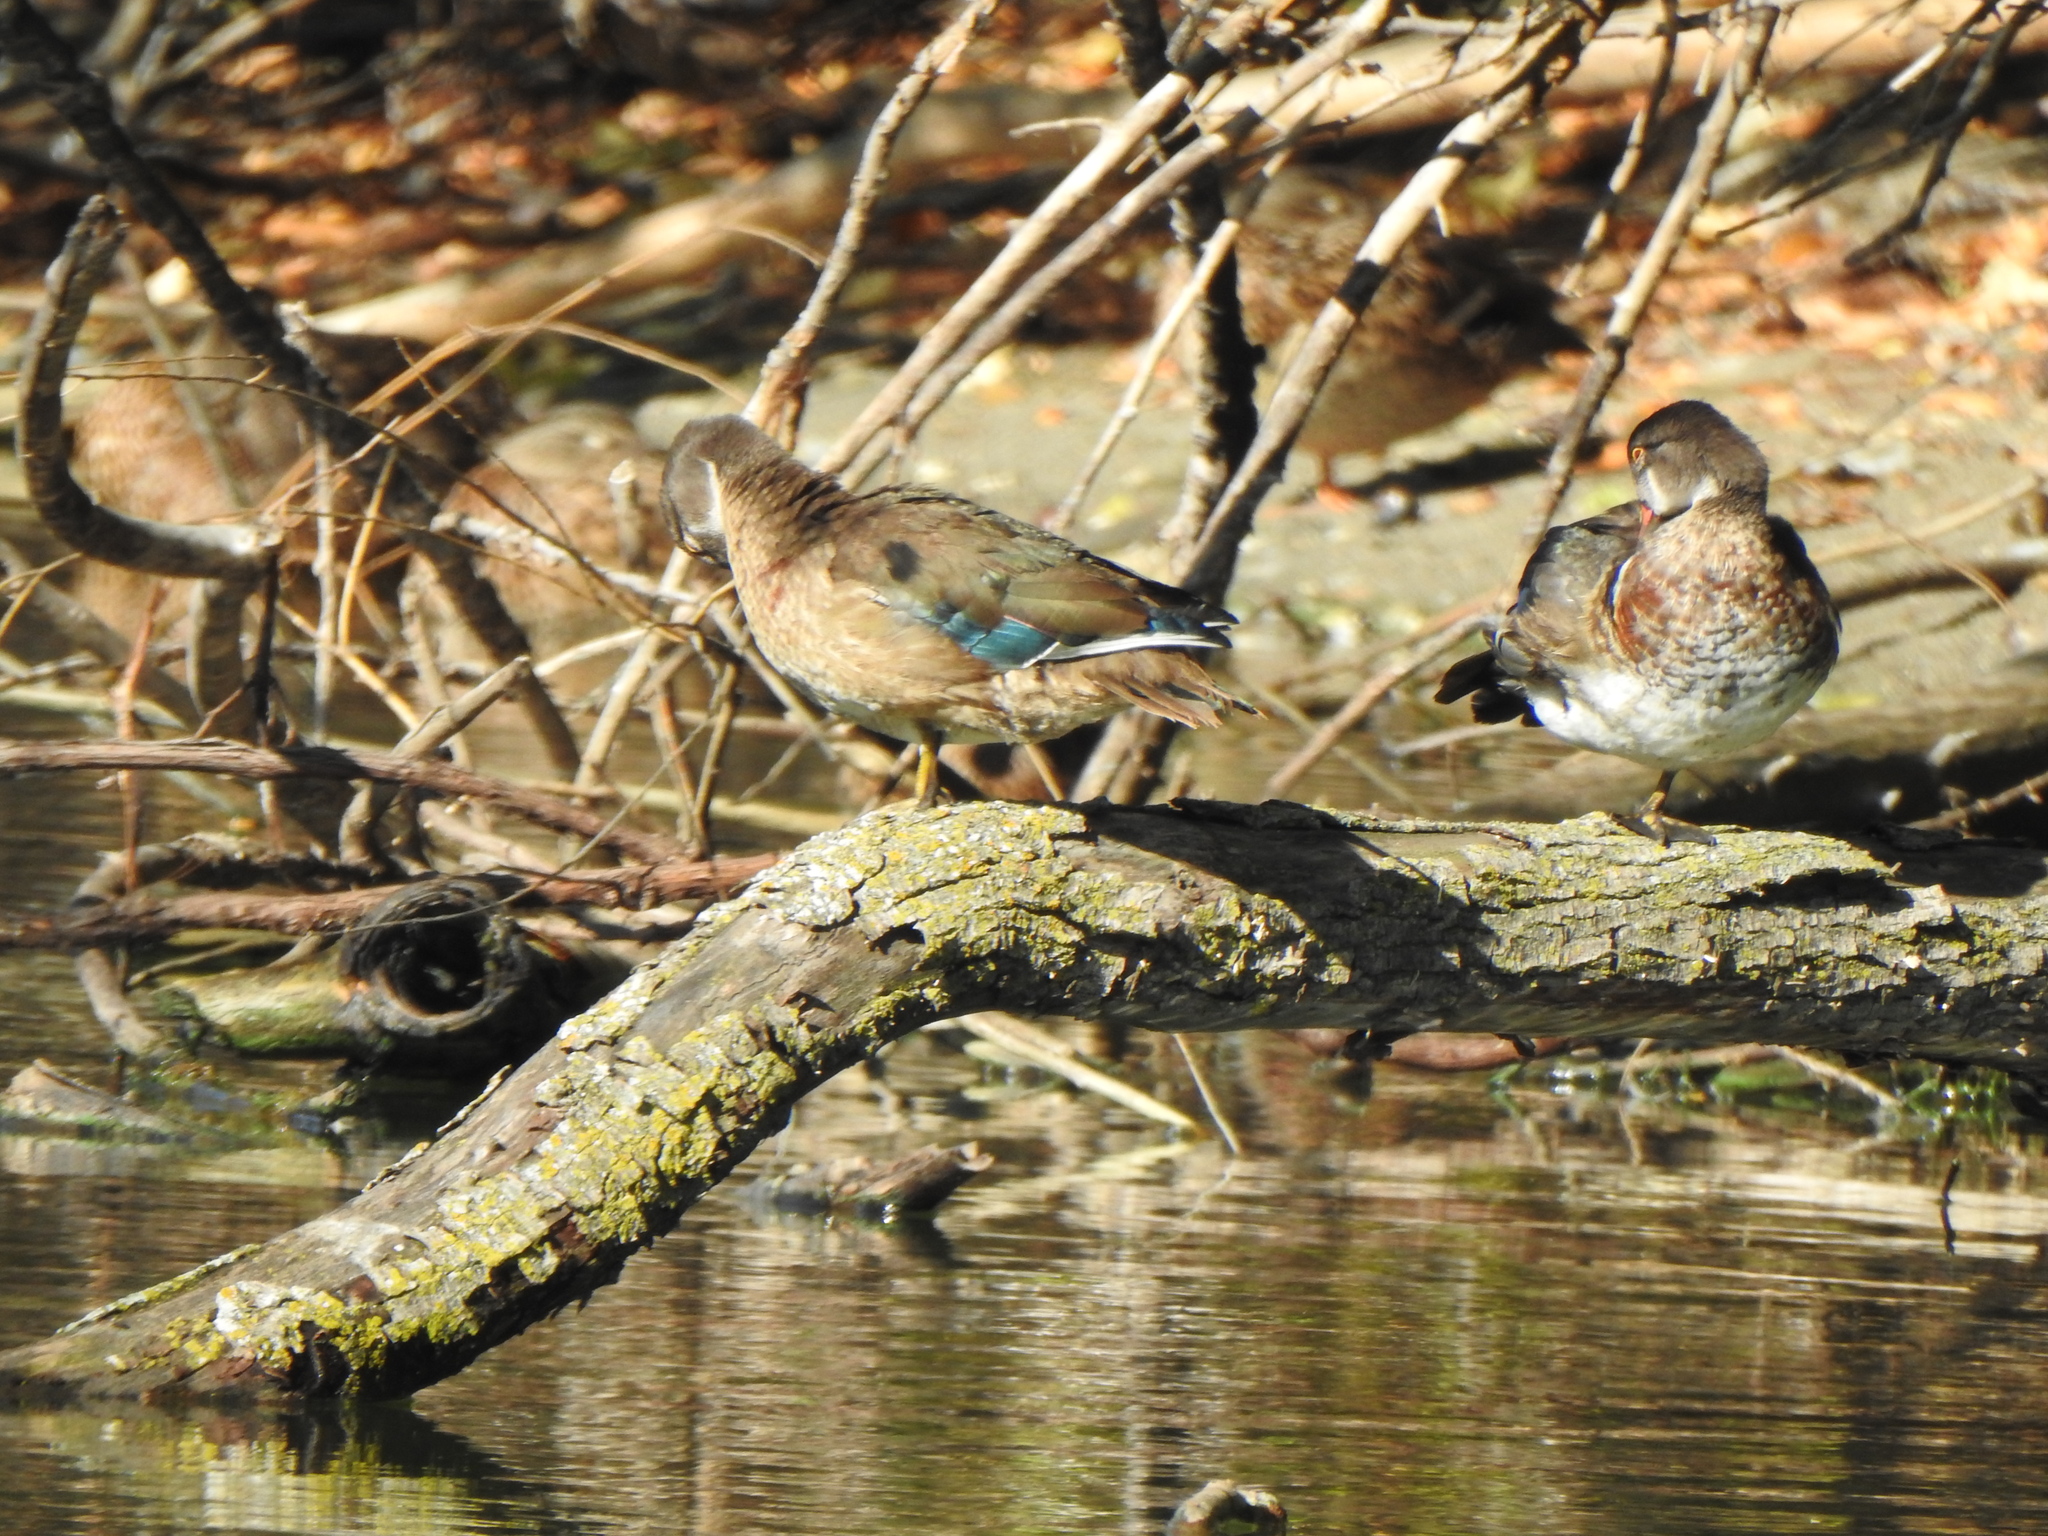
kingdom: Animalia
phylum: Chordata
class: Aves
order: Anseriformes
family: Anatidae
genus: Aix
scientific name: Aix sponsa
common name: Wood duck
